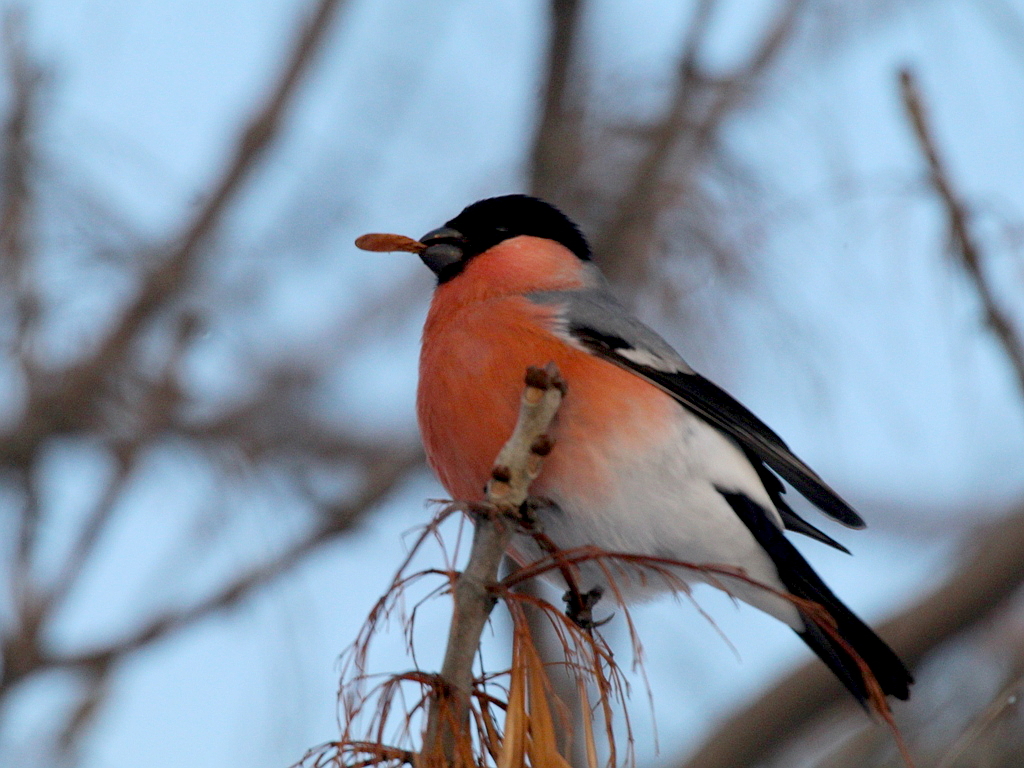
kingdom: Animalia
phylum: Chordata
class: Aves
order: Passeriformes
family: Fringillidae
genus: Pyrrhula
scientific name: Pyrrhula pyrrhula
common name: Eurasian bullfinch
